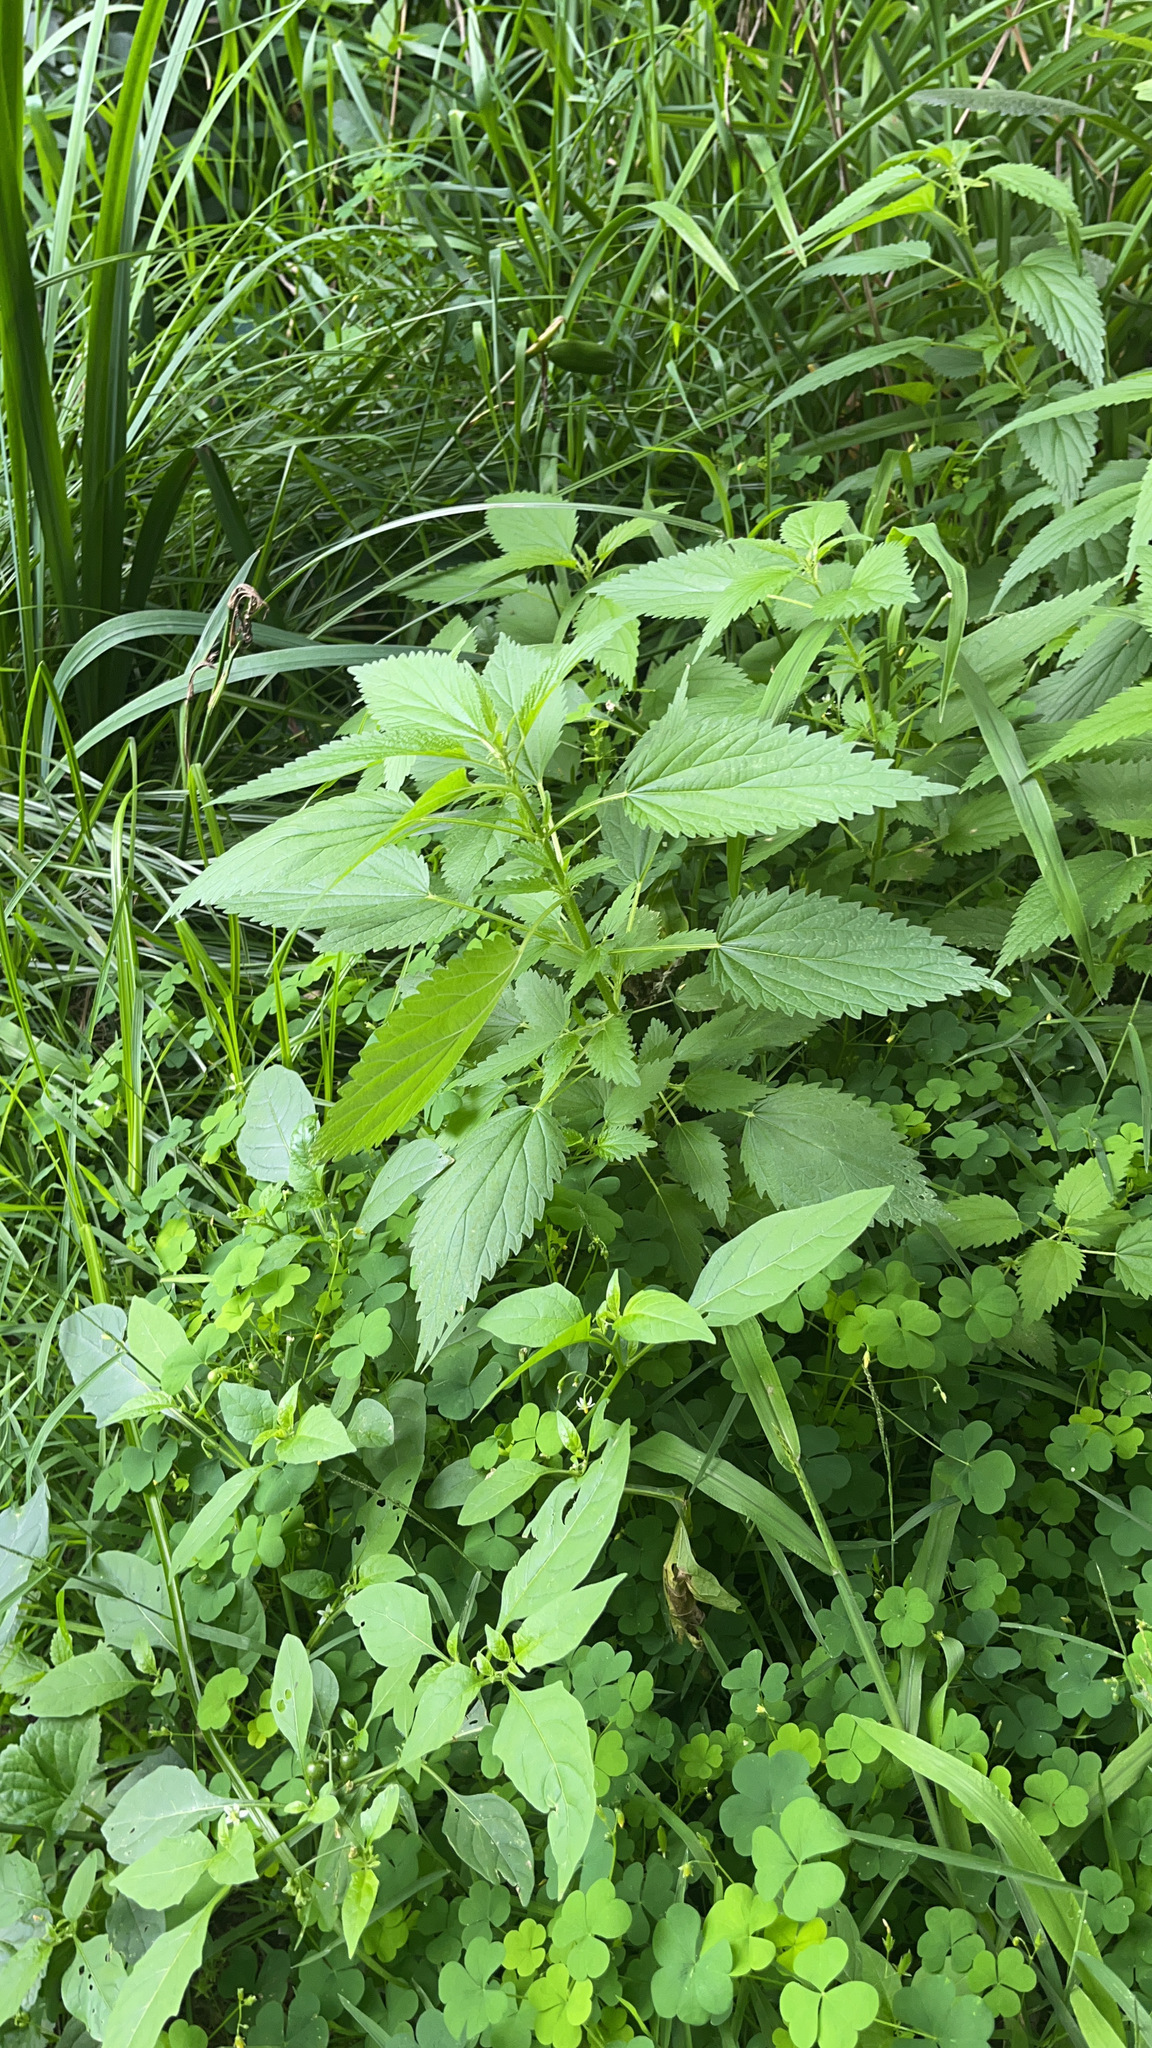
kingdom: Plantae
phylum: Tracheophyta
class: Magnoliopsida
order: Rosales
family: Urticaceae
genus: Urtica
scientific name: Urtica gracilis
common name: Slender stinging nettle
